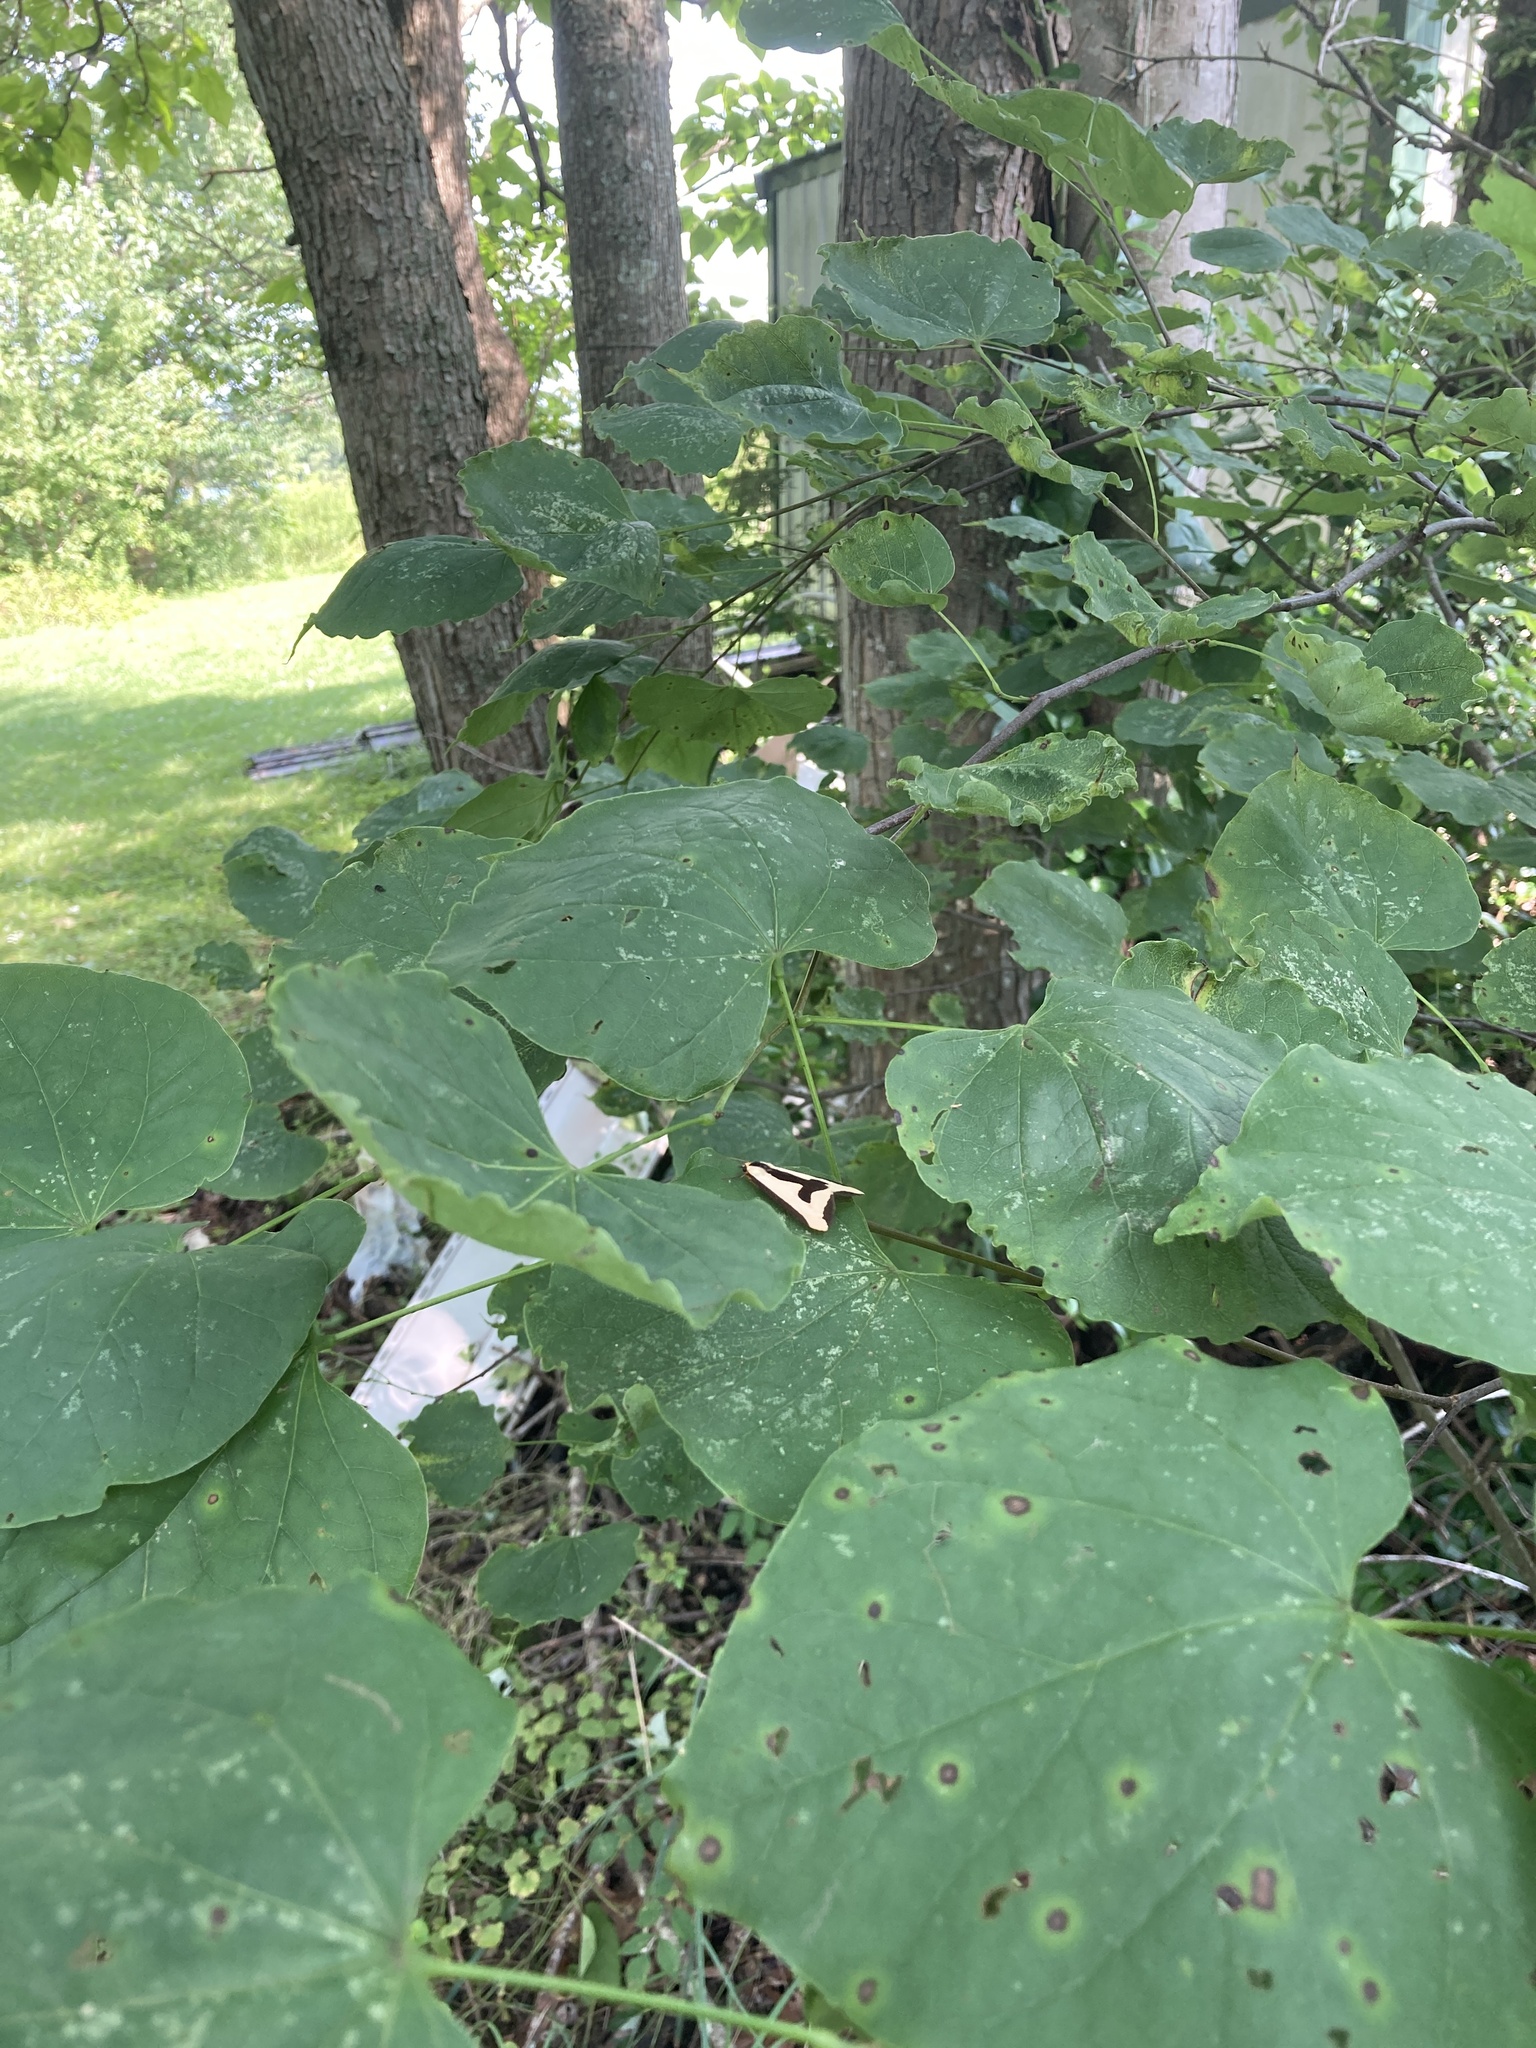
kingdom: Animalia
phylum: Arthropoda
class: Insecta
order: Lepidoptera
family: Erebidae
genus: Haploa
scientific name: Haploa clymene
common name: Clymene moth
